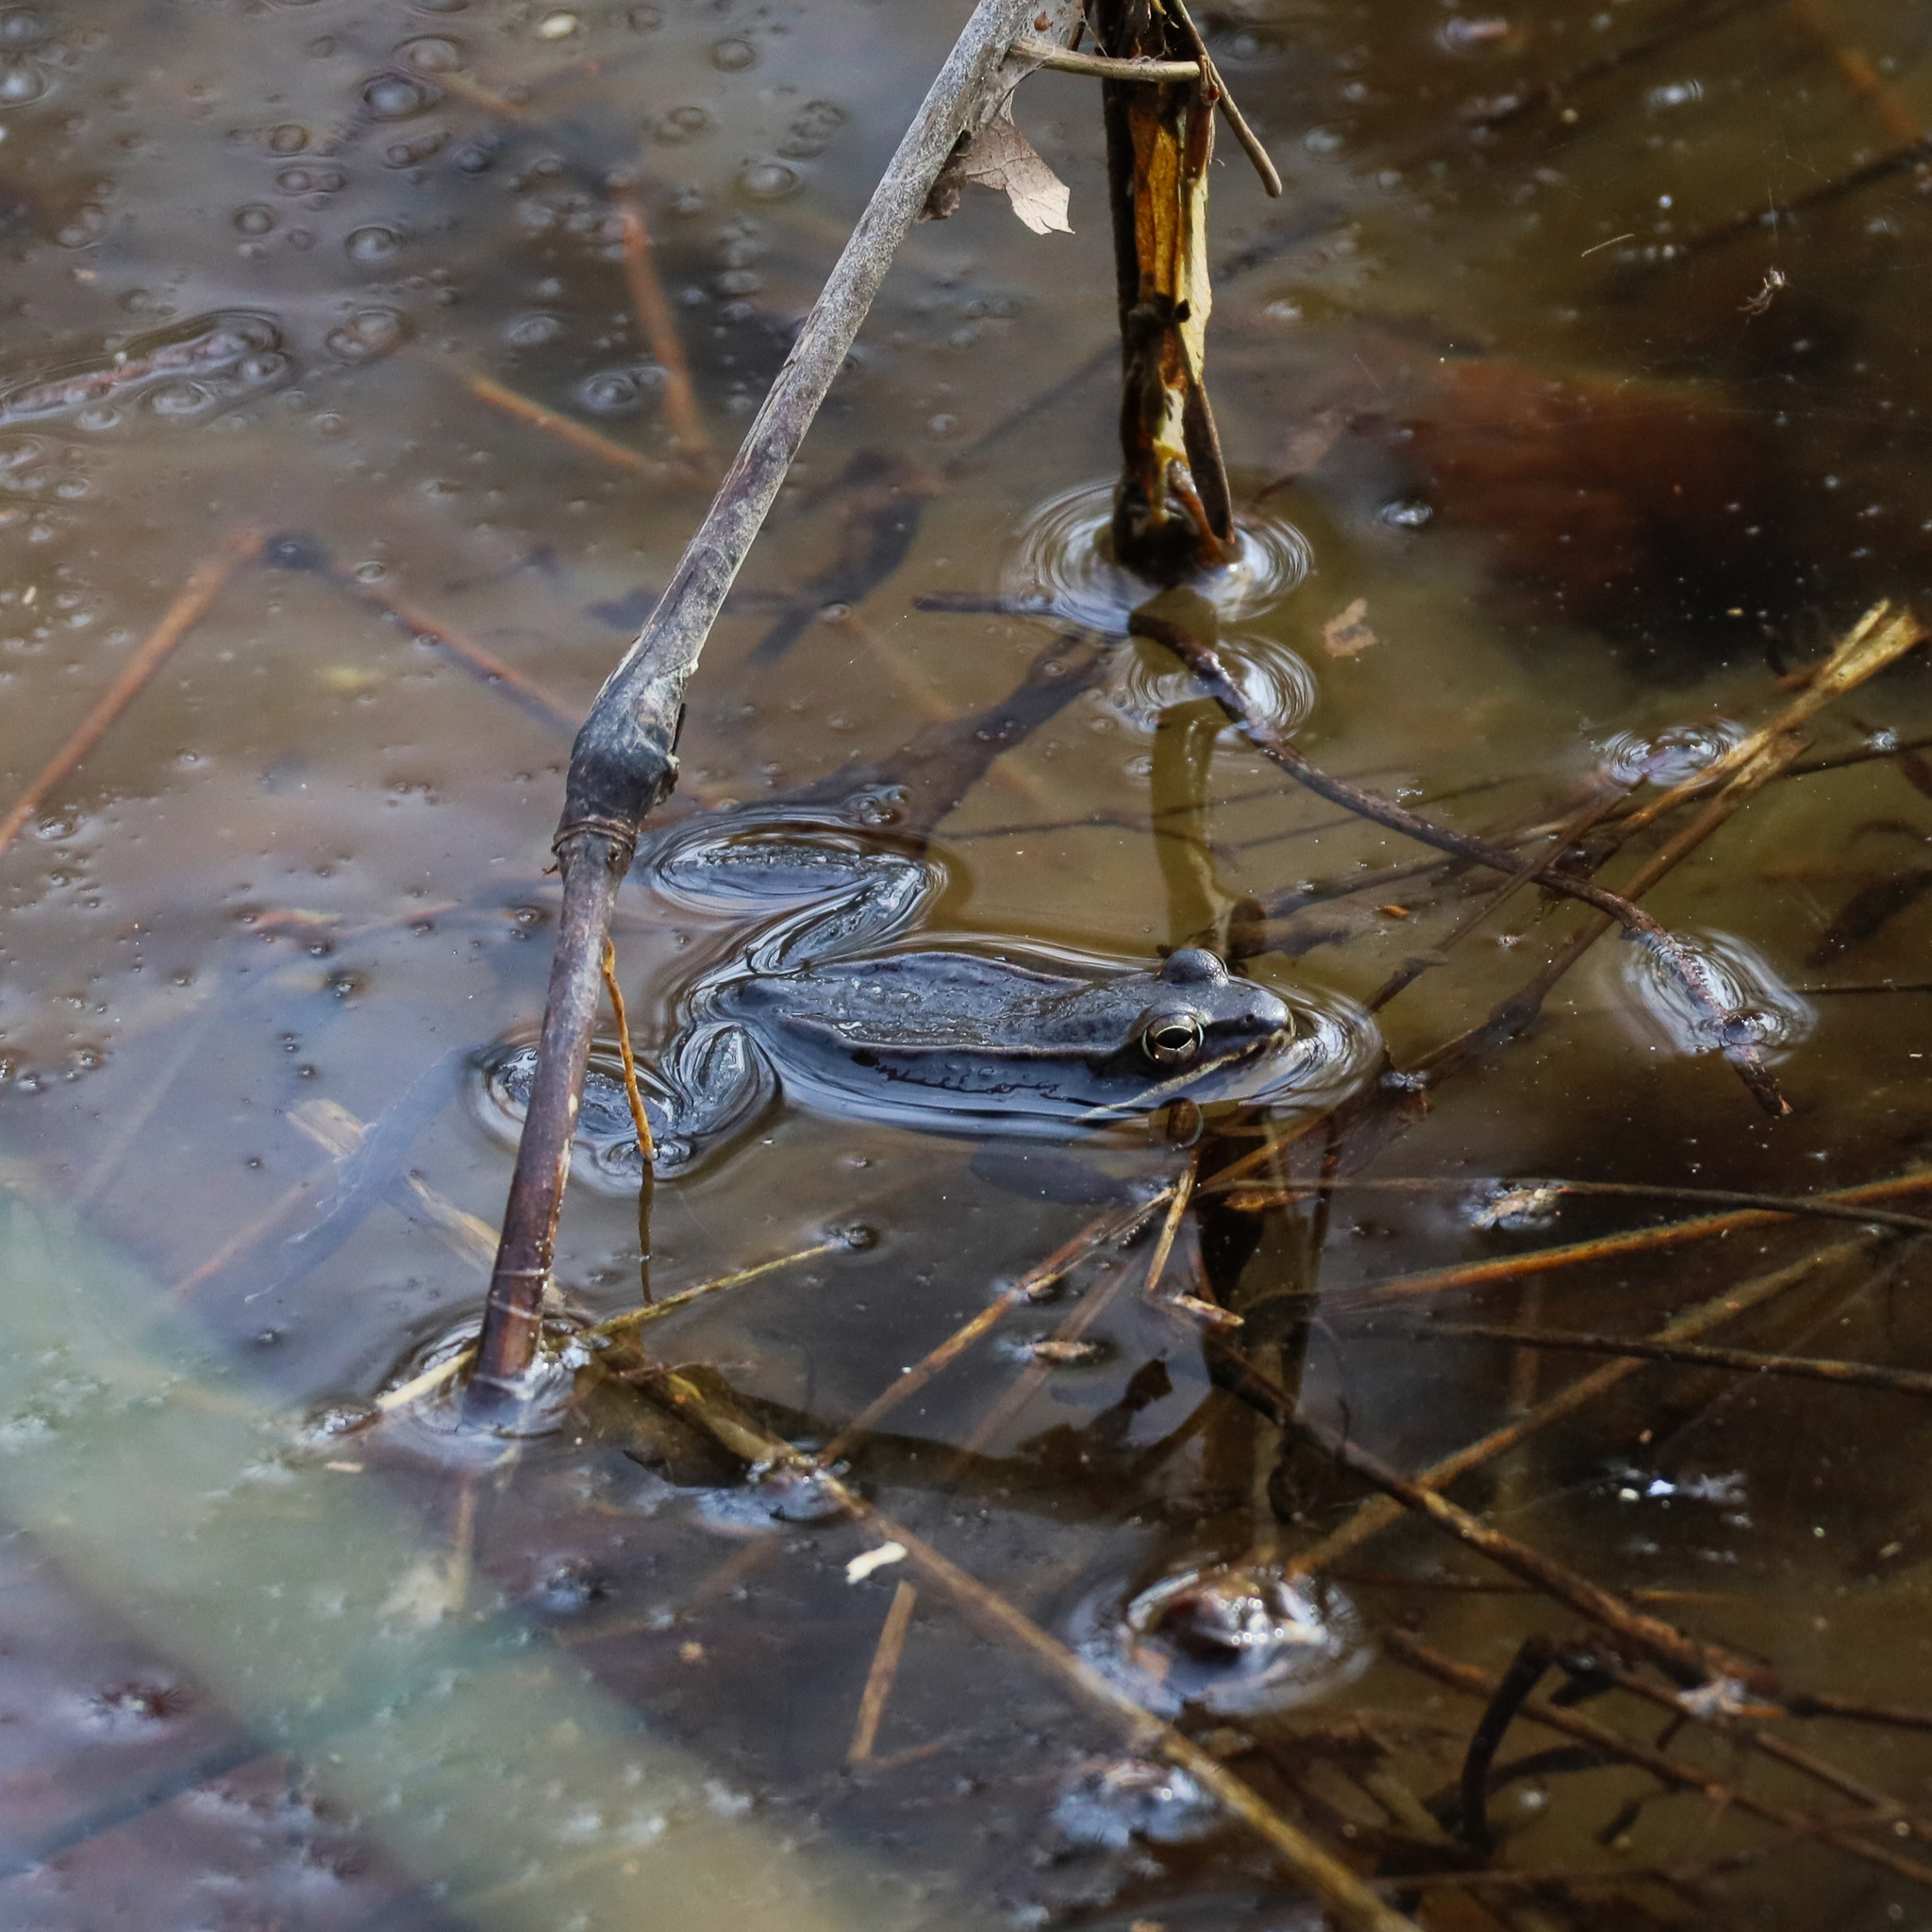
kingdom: Animalia
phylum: Chordata
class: Amphibia
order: Anura
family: Ranidae
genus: Lithobates
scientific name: Lithobates sylvaticus
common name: Wood frog
